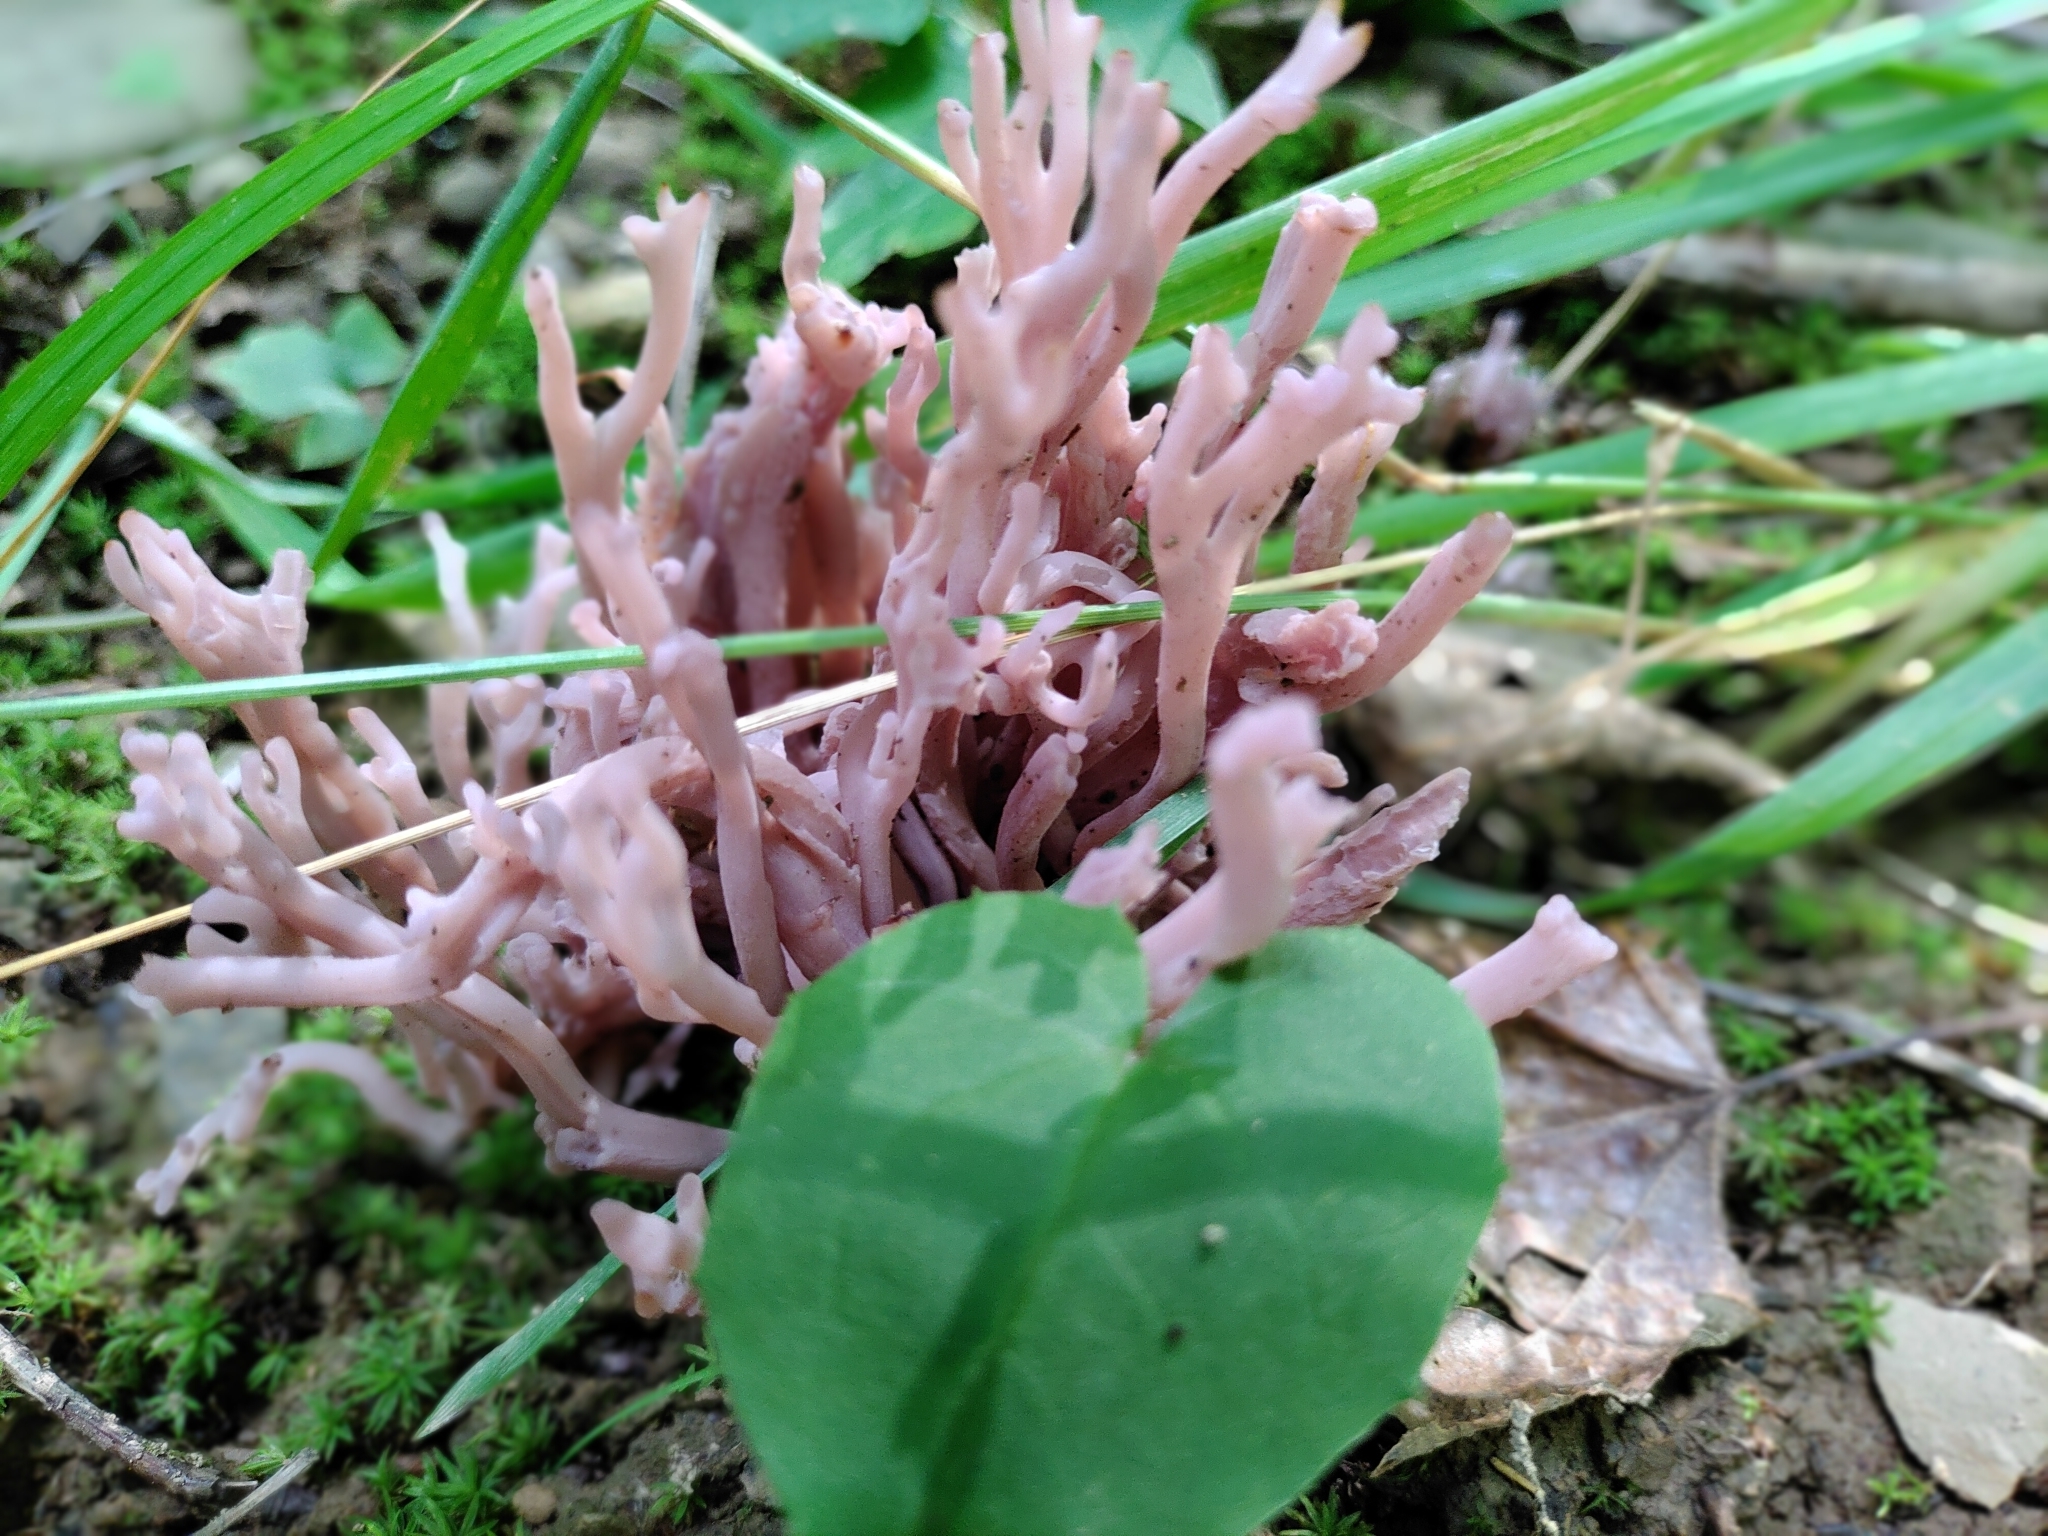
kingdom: Fungi
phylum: Basidiomycota
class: Agaricomycetes
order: Agaricales
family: Clavariaceae
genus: Clavaria
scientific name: Clavaria zollingeri
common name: Violet coral
